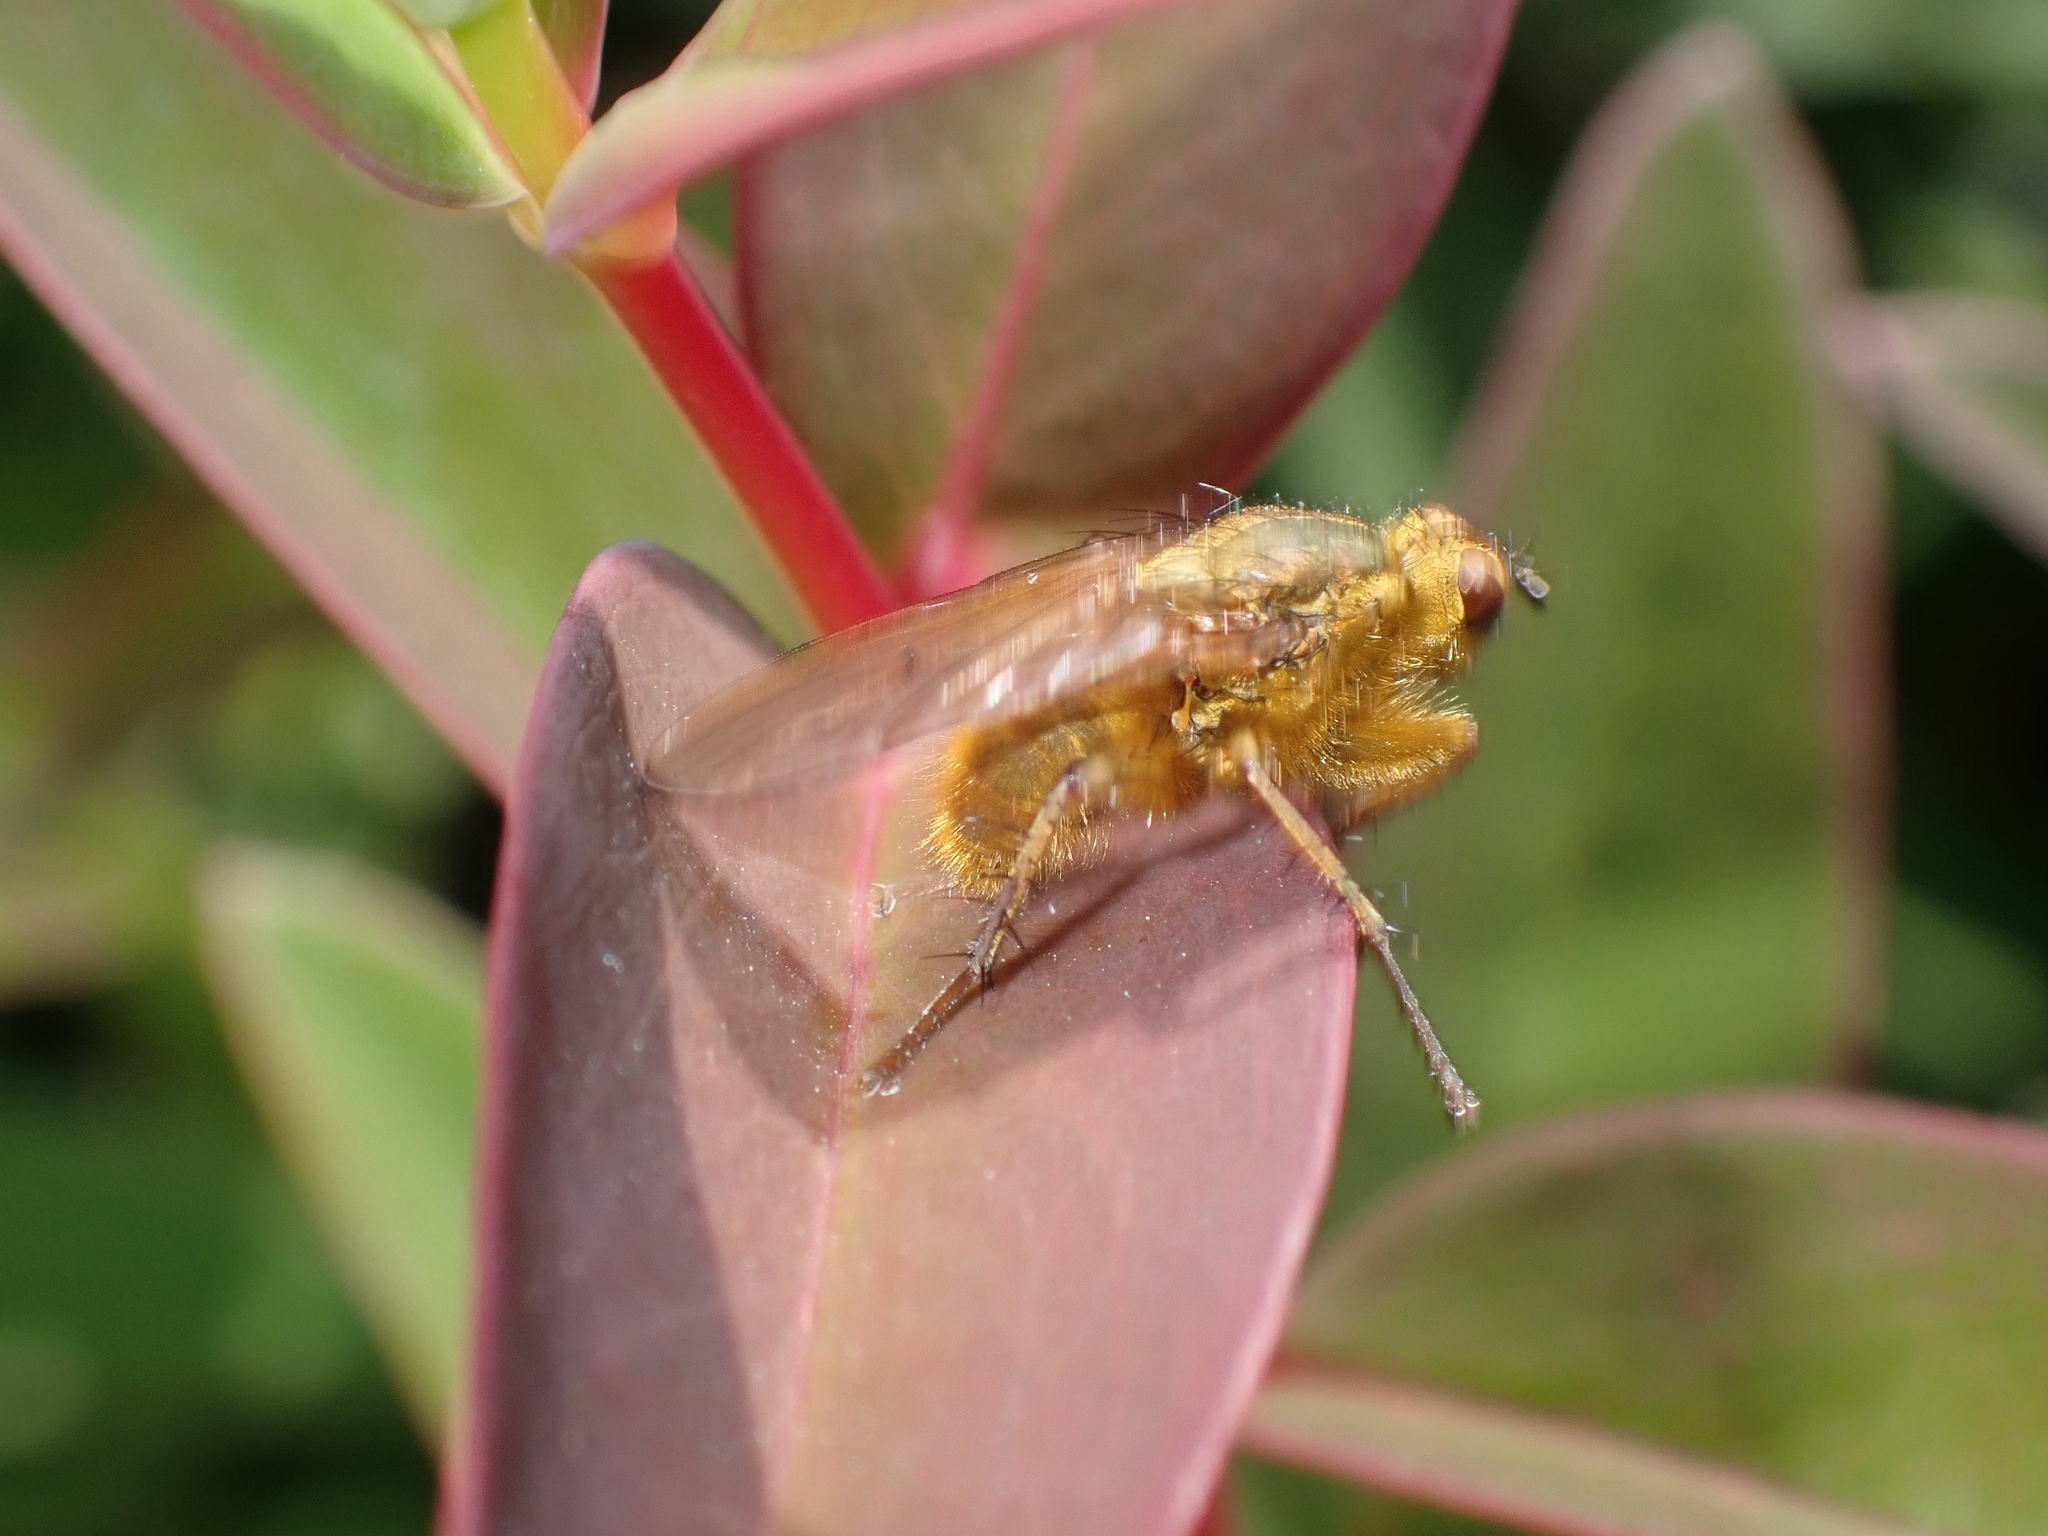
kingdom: Animalia
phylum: Arthropoda
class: Insecta
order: Diptera
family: Scathophagidae
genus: Scathophaga
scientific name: Scathophaga stercoraria
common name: Yellow dung fly
